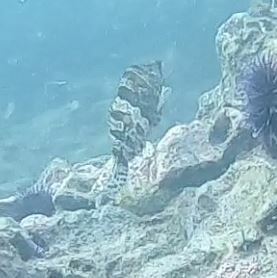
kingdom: Animalia
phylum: Chordata
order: Scorpaeniformes
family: Hexagrammidae
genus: Oxylebius
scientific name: Oxylebius pictus
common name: Painted greenling
